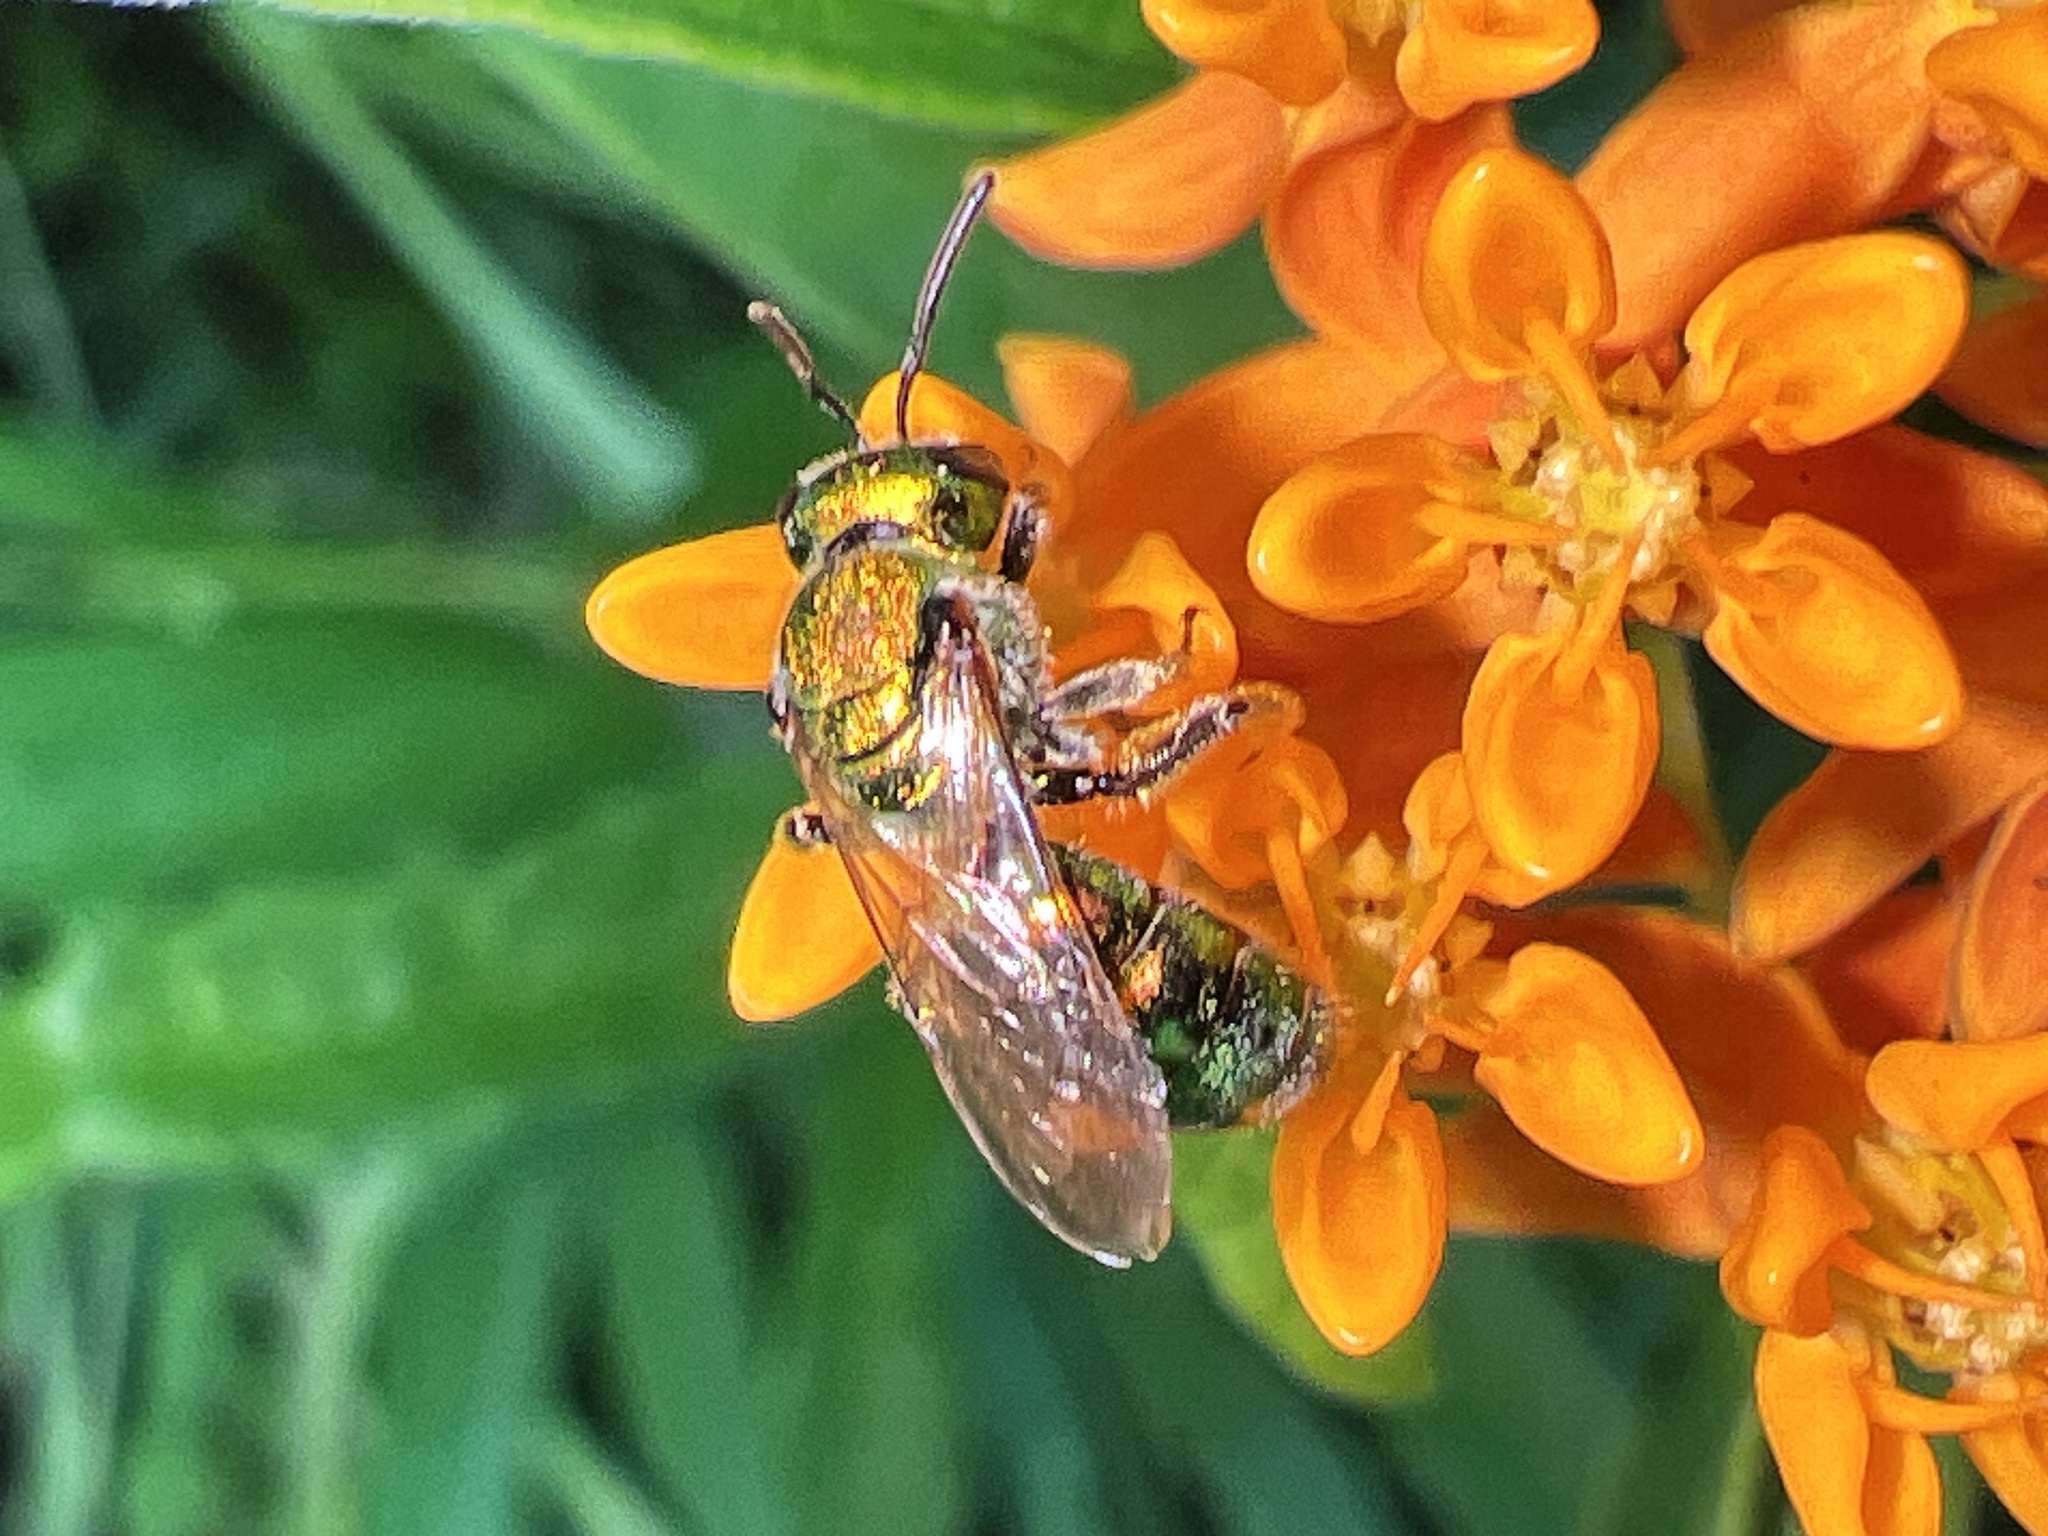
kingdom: Animalia
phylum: Arthropoda
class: Insecta
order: Hymenoptera
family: Halictidae
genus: Augochlora
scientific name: Augochlora pura
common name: Pure green sweat bee
